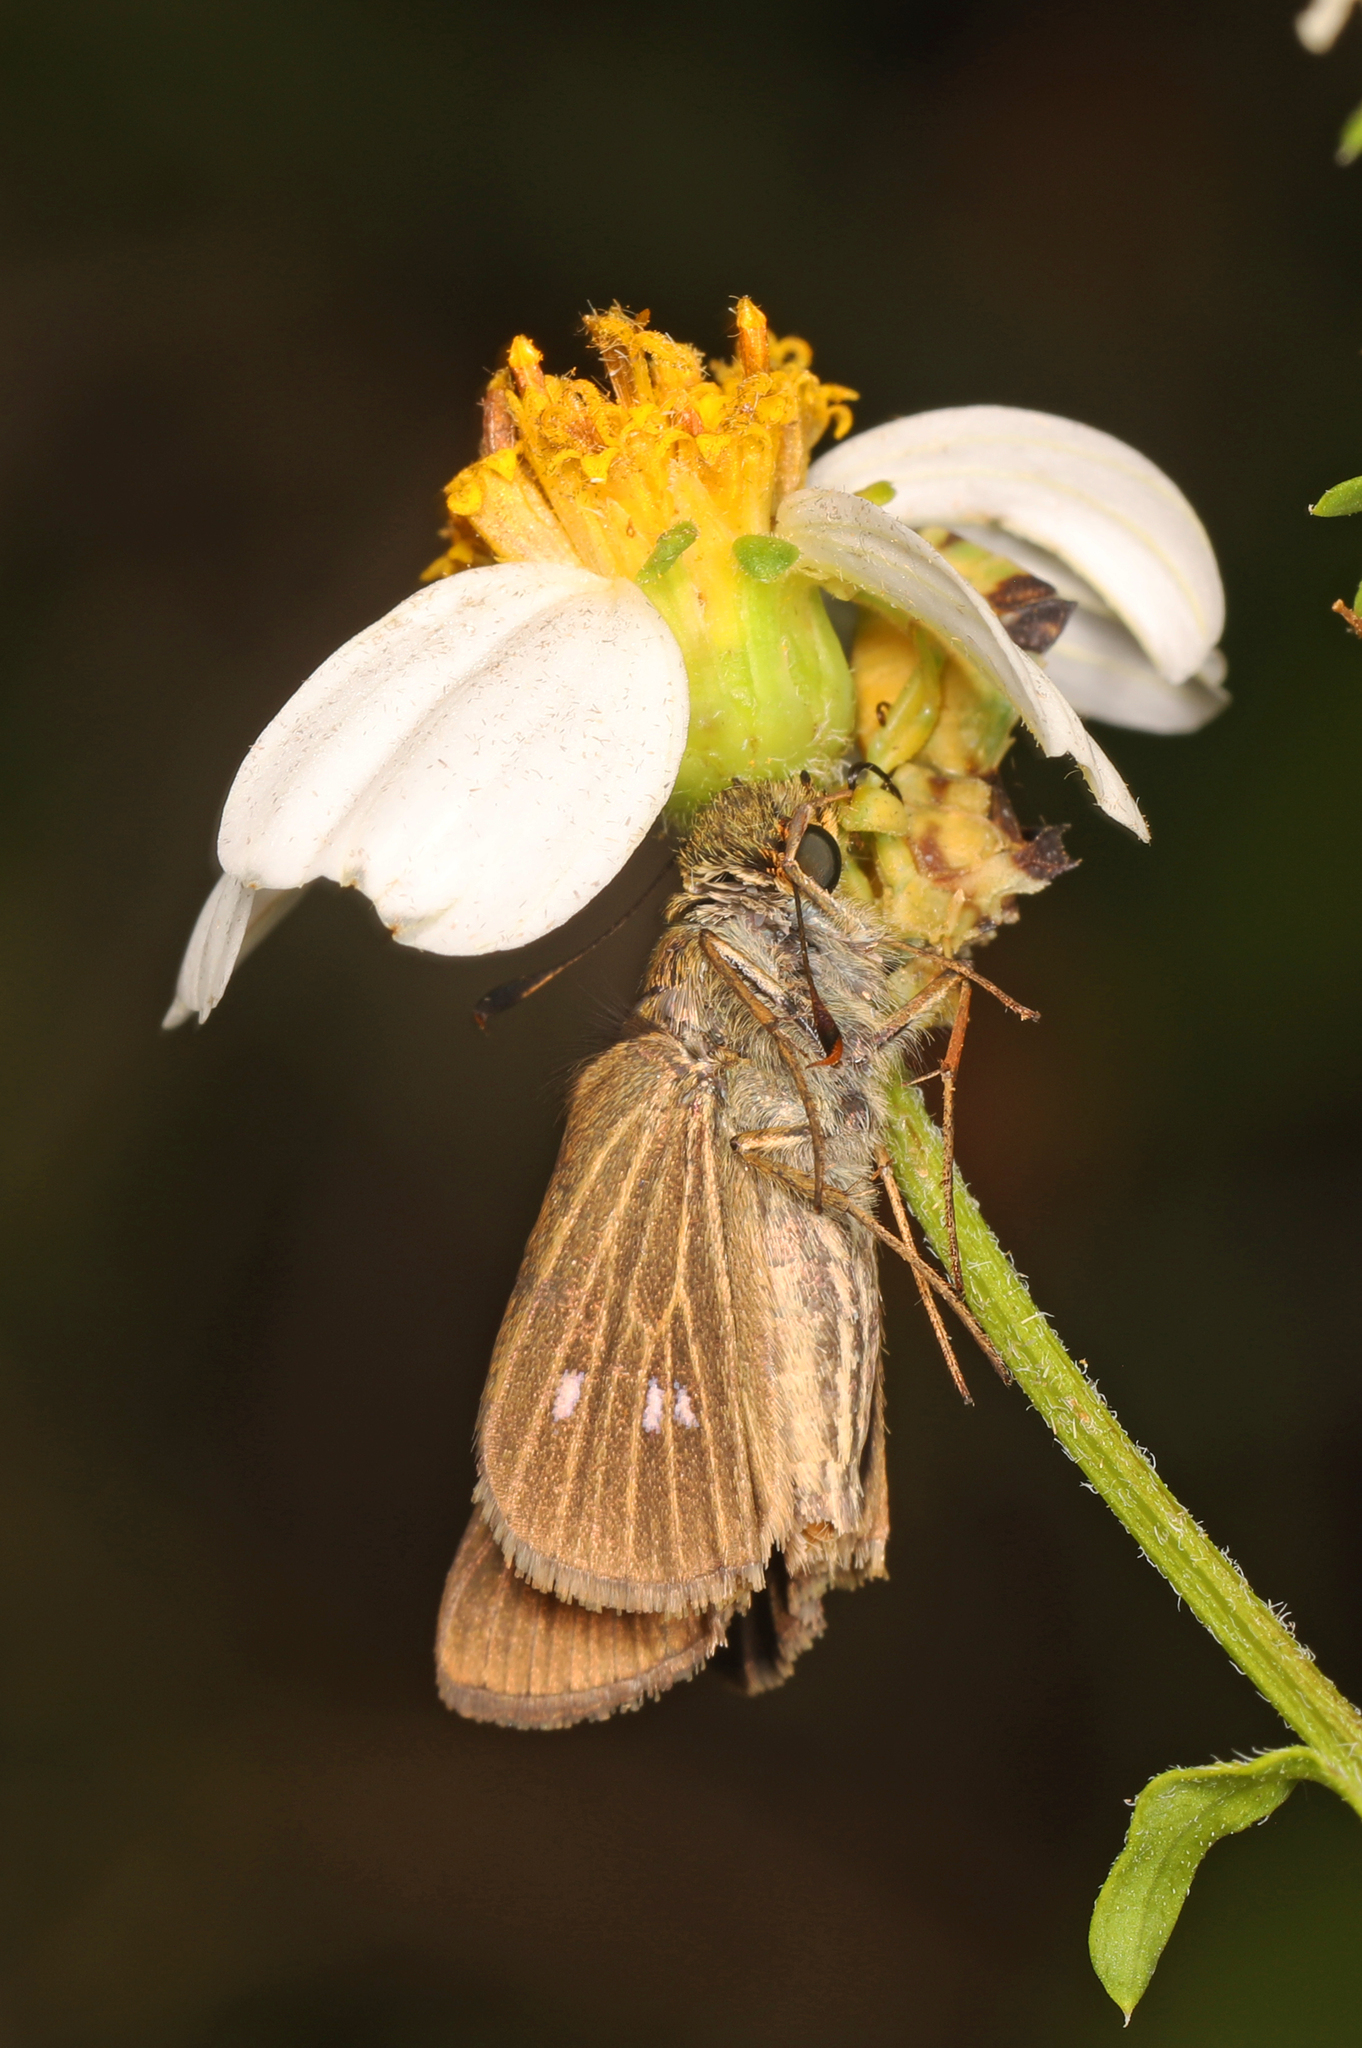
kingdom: Animalia
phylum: Arthropoda
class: Insecta
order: Lepidoptera
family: Hesperiidae
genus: Panoquina
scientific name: Panoquina panoquinoides
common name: Beach skipper
